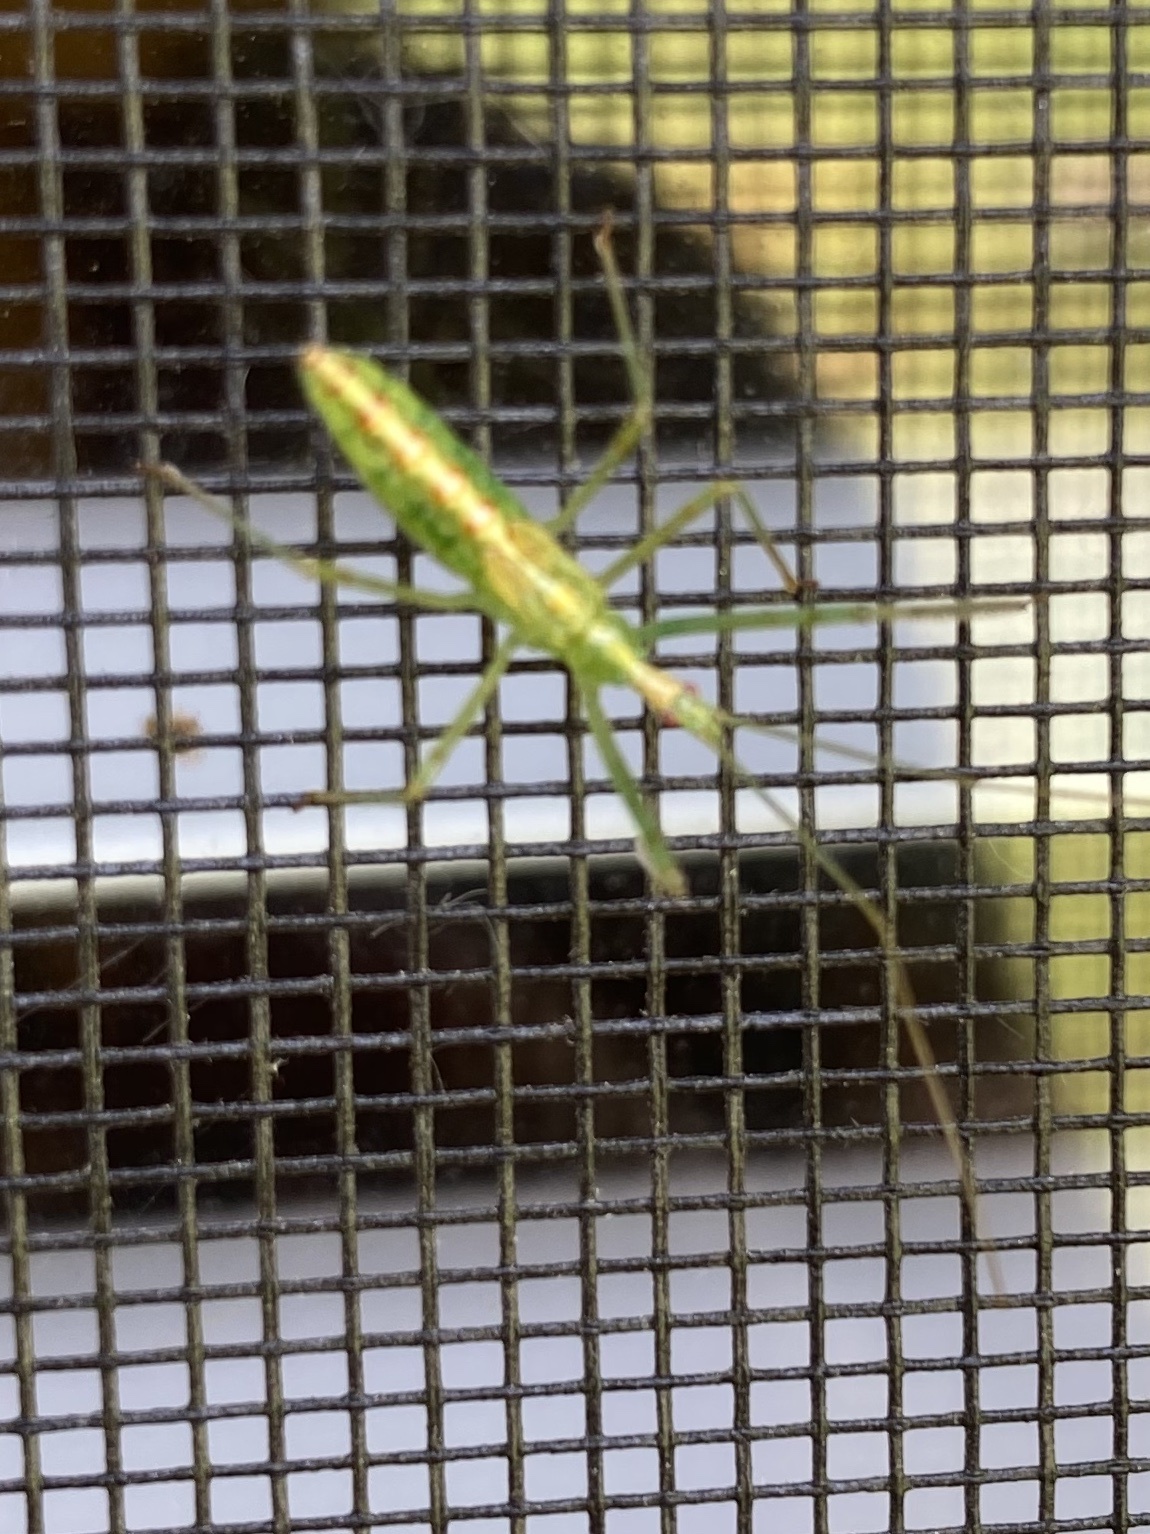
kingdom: Animalia
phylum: Arthropoda
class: Insecta
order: Hemiptera
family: Reduviidae
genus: Zelus
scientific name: Zelus luridus
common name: Pale green assassin bug
